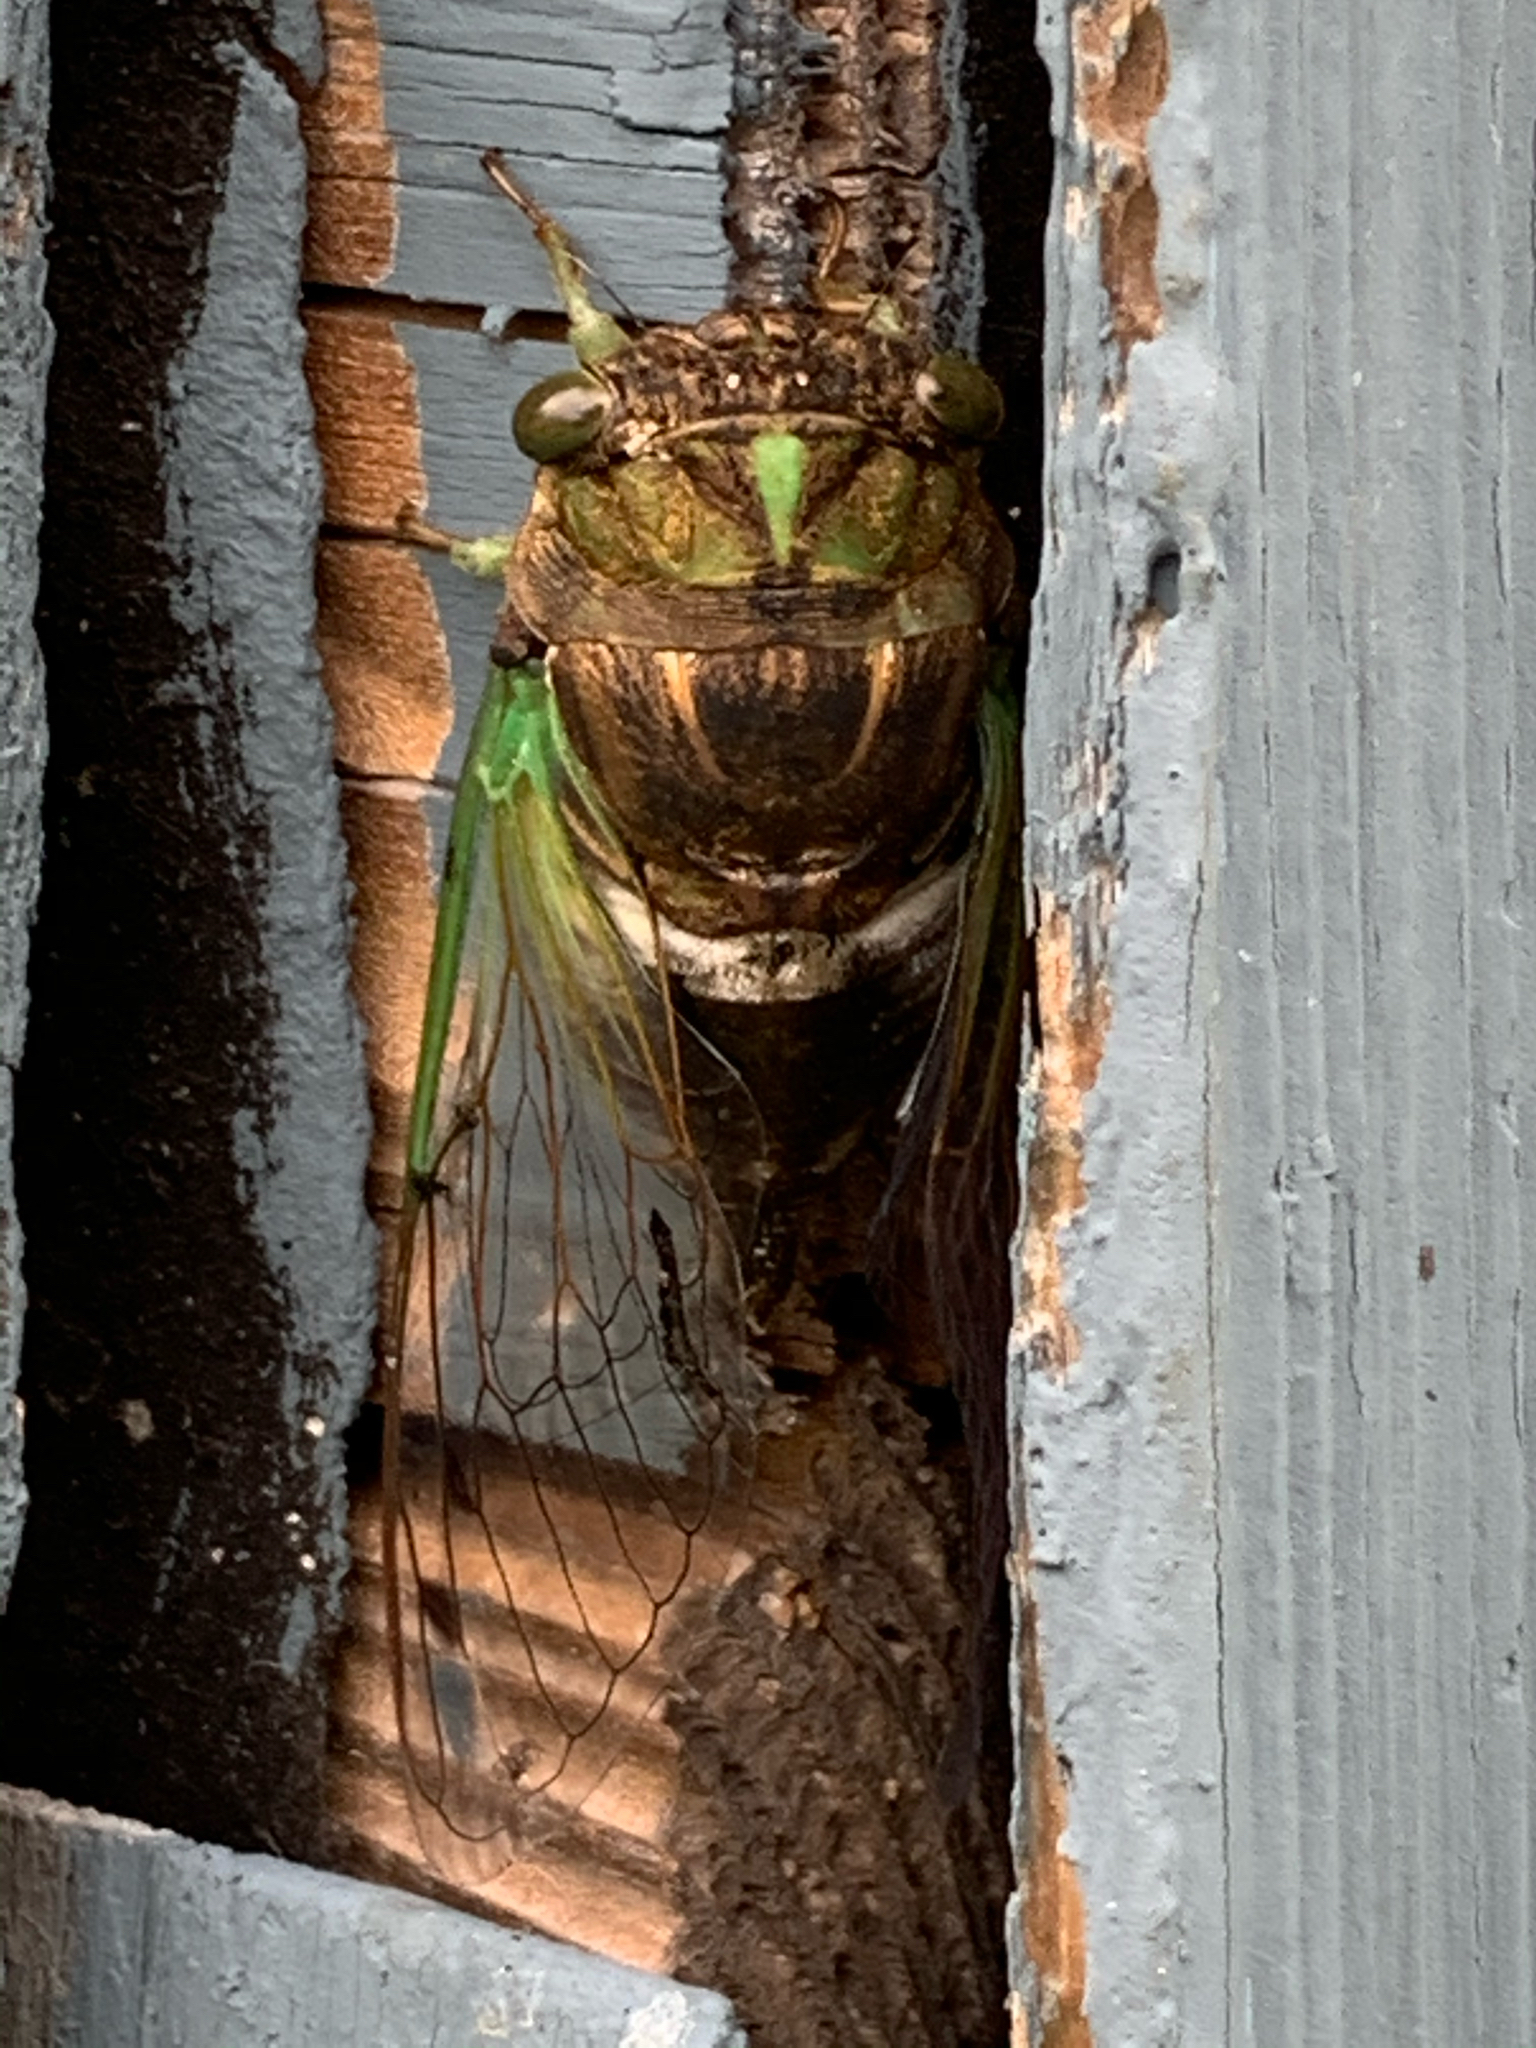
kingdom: Animalia
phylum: Arthropoda
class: Insecta
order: Hemiptera
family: Cicadidae
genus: Neotibicen
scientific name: Neotibicen tibicen
